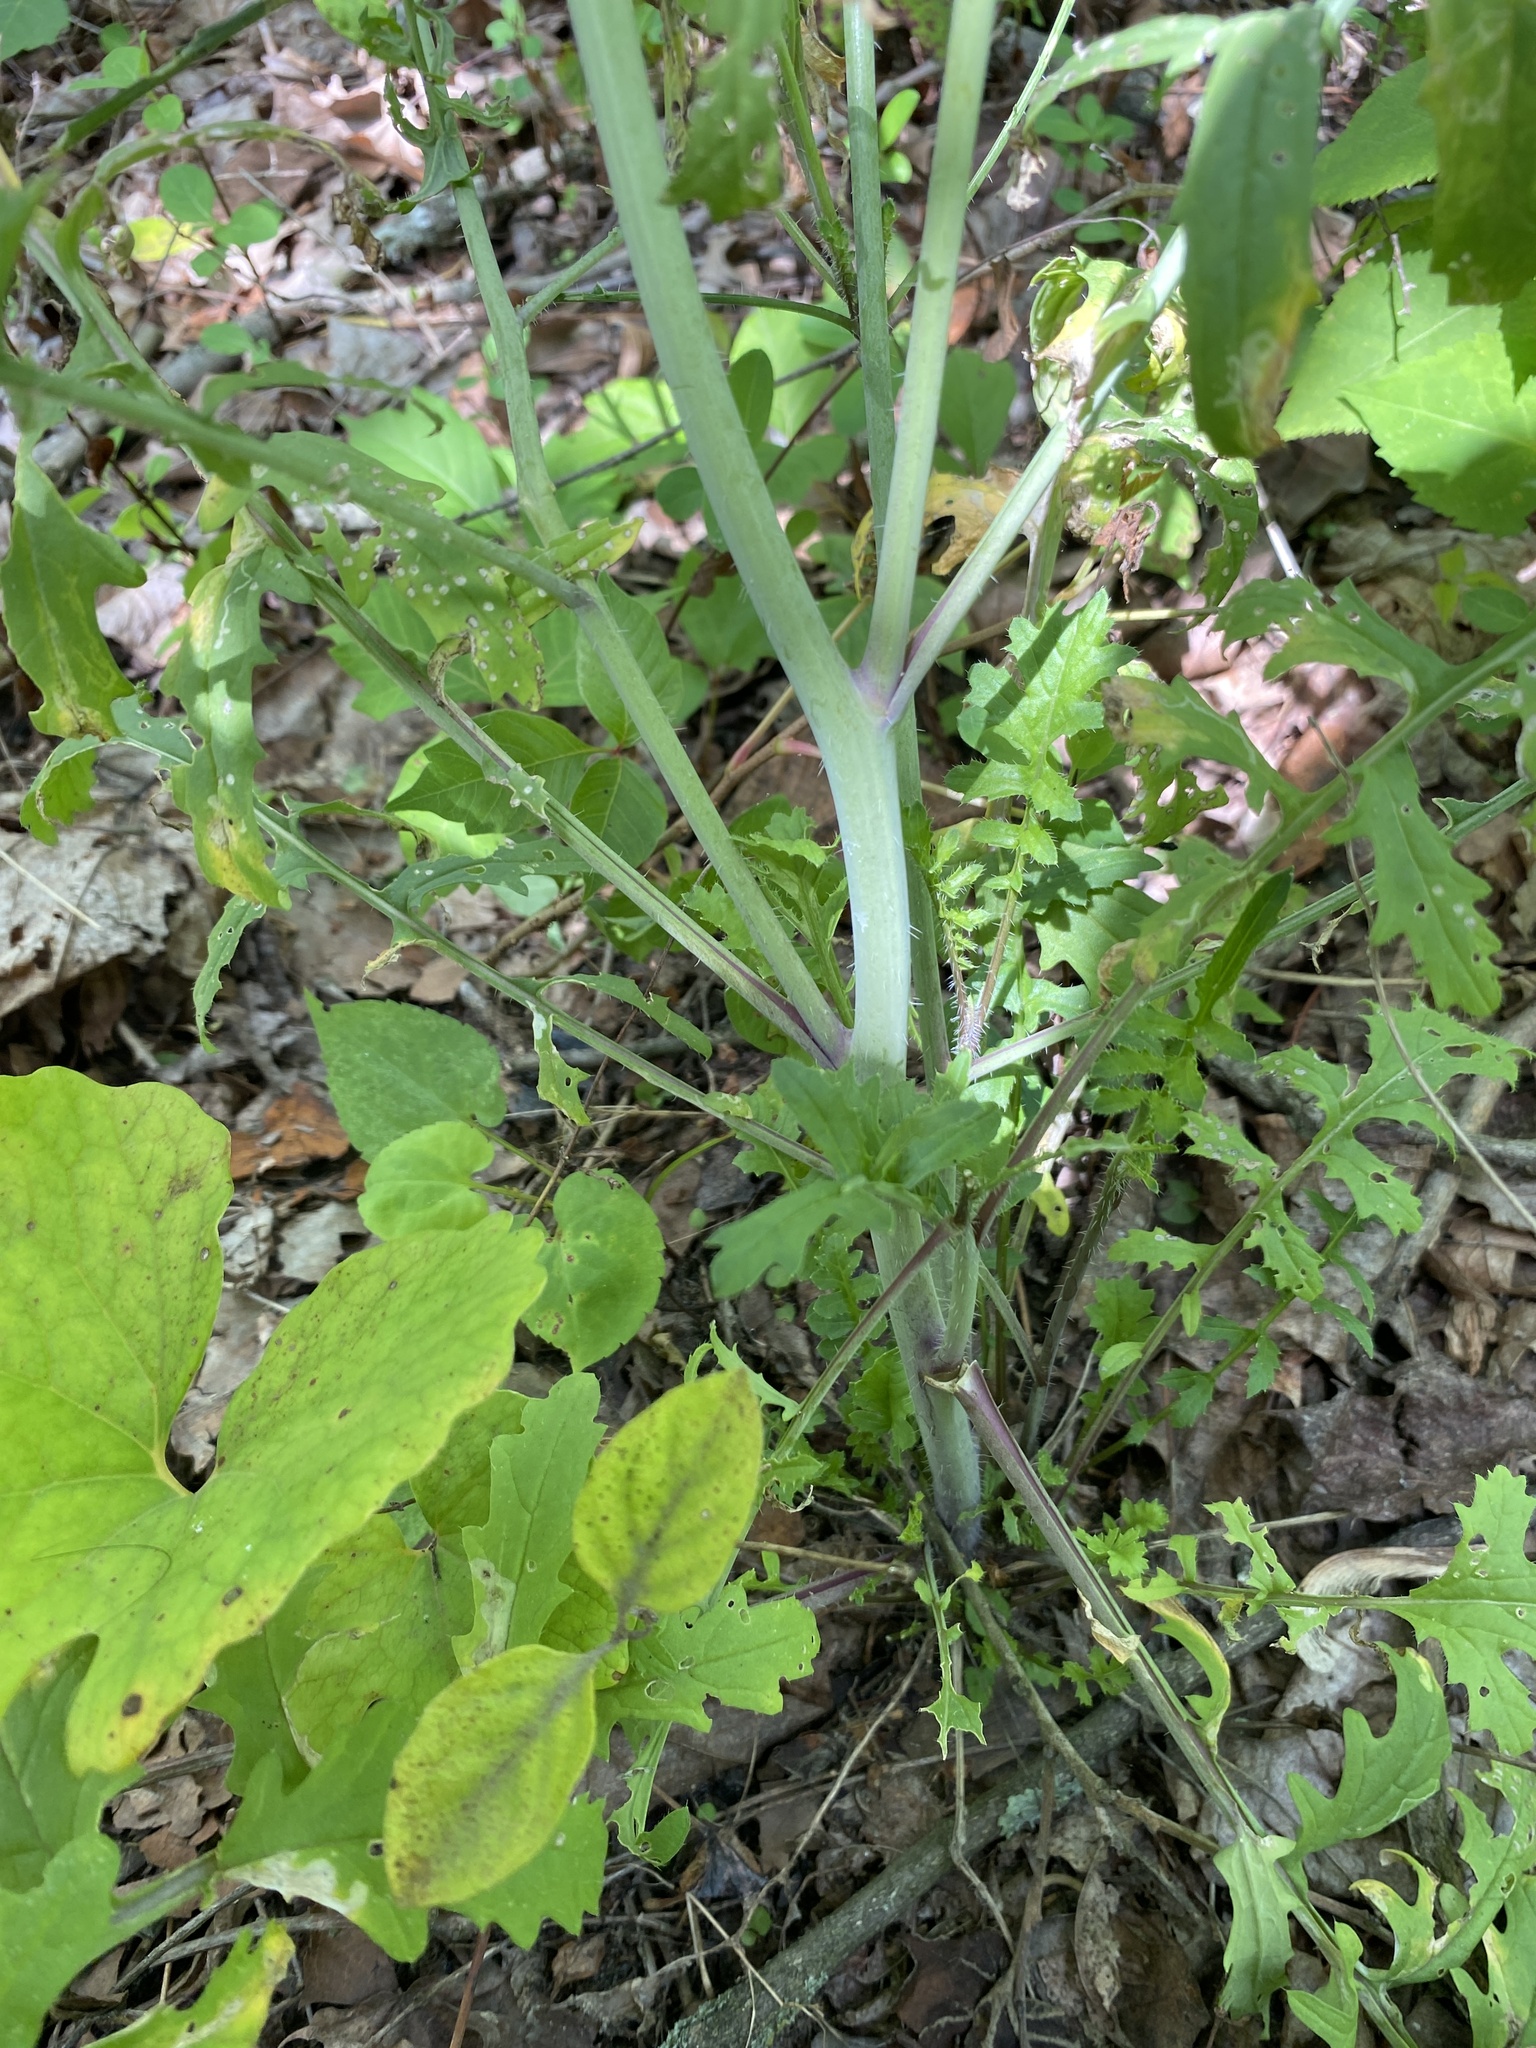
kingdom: Plantae
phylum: Tracheophyta
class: Magnoliopsida
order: Brassicales
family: Brassicaceae
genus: Coincya
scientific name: Coincya monensis
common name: Star-mustard
